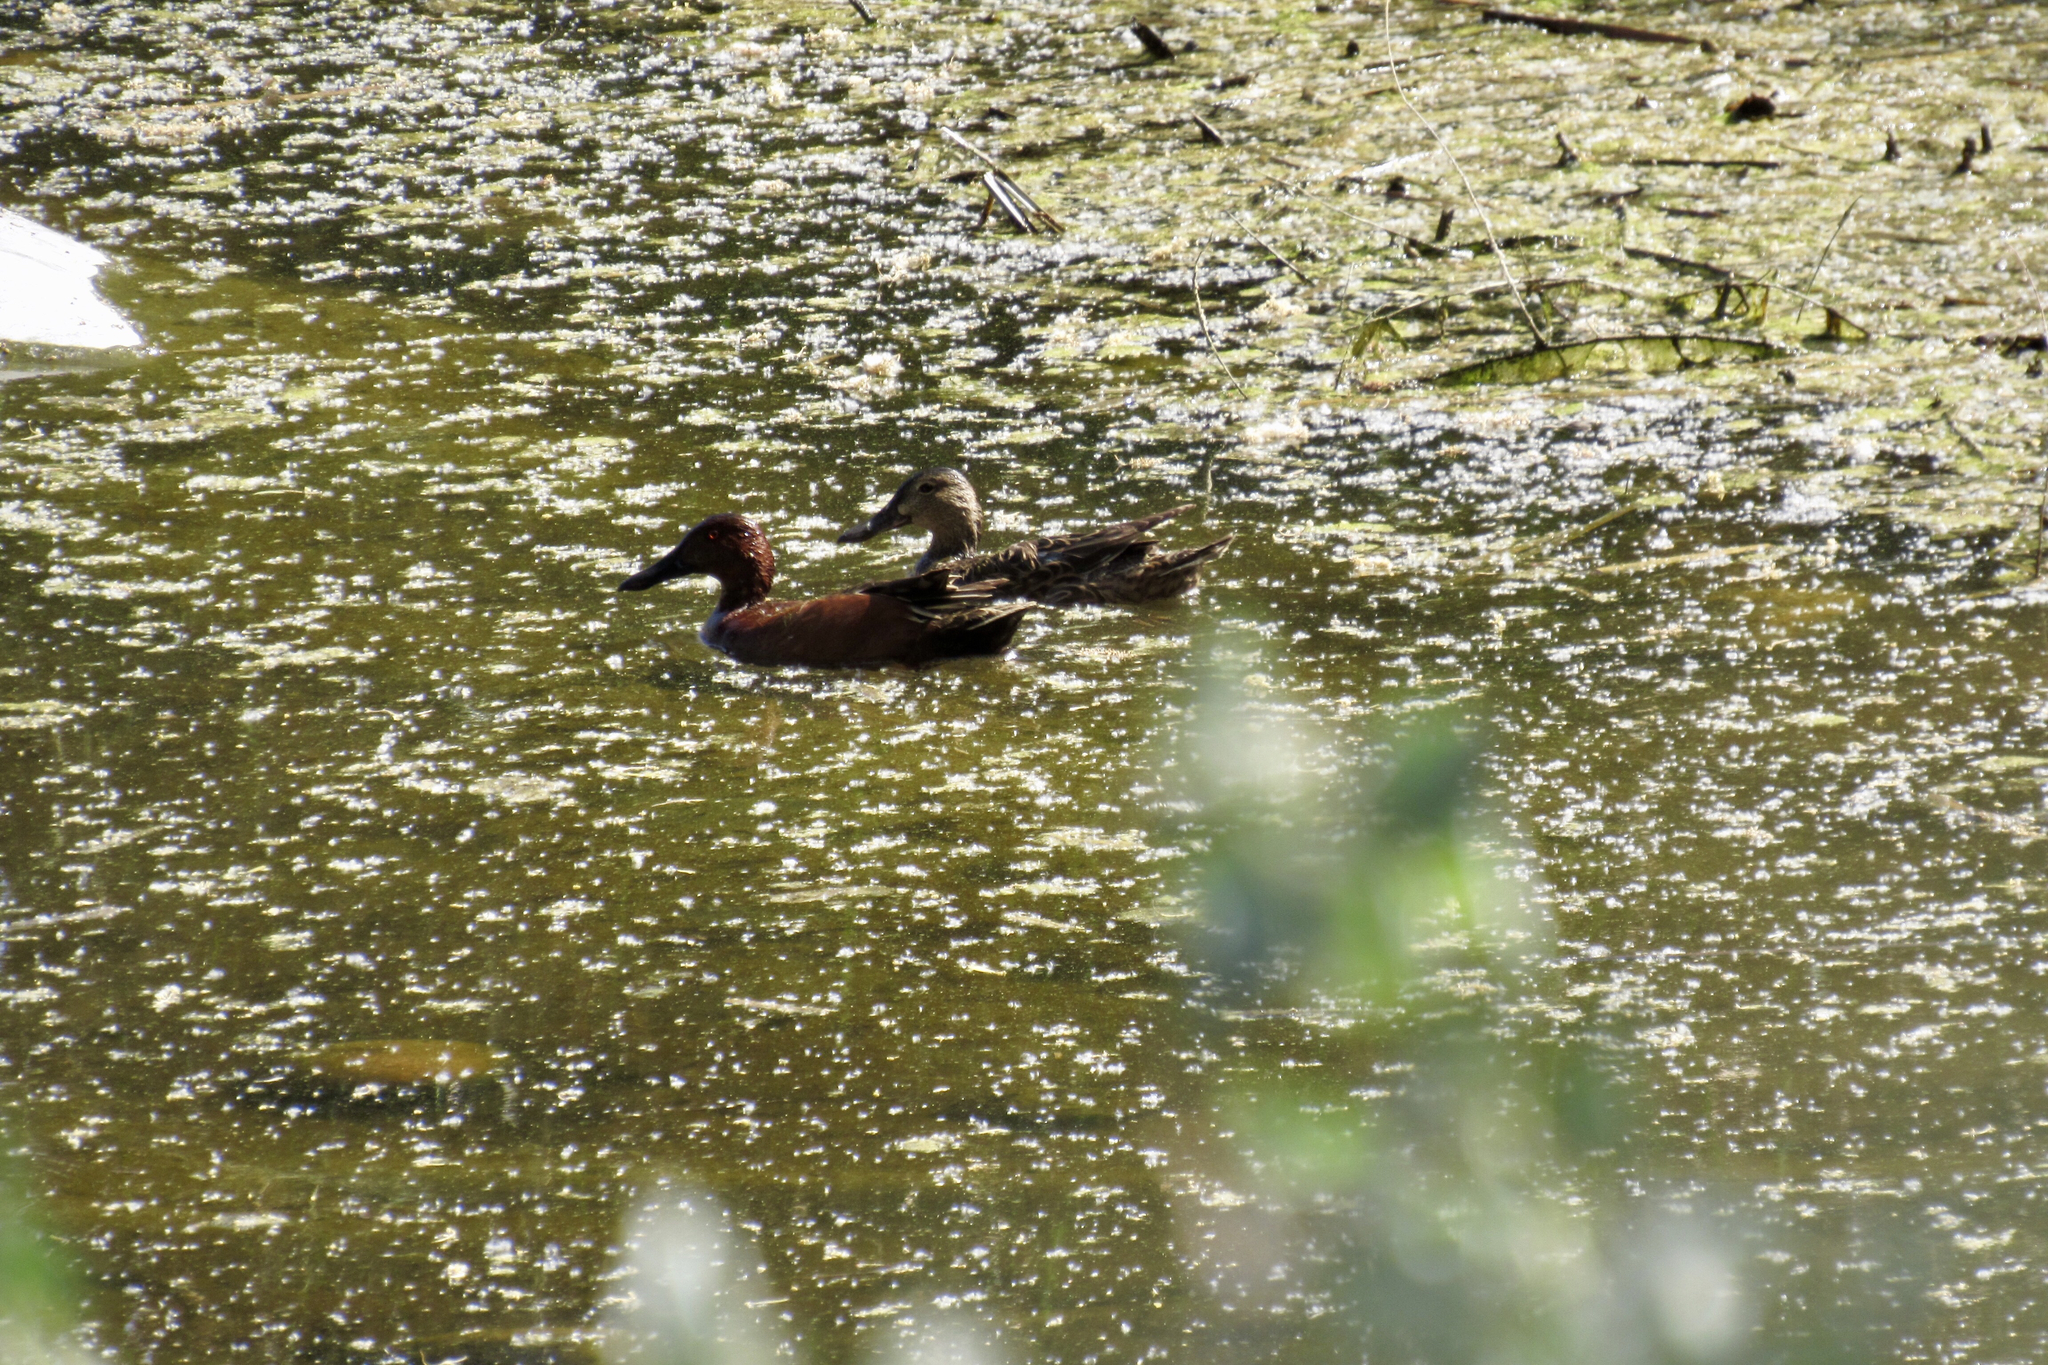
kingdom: Animalia
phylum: Chordata
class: Aves
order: Anseriformes
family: Anatidae
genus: Spatula
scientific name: Spatula cyanoptera
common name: Cinnamon teal
